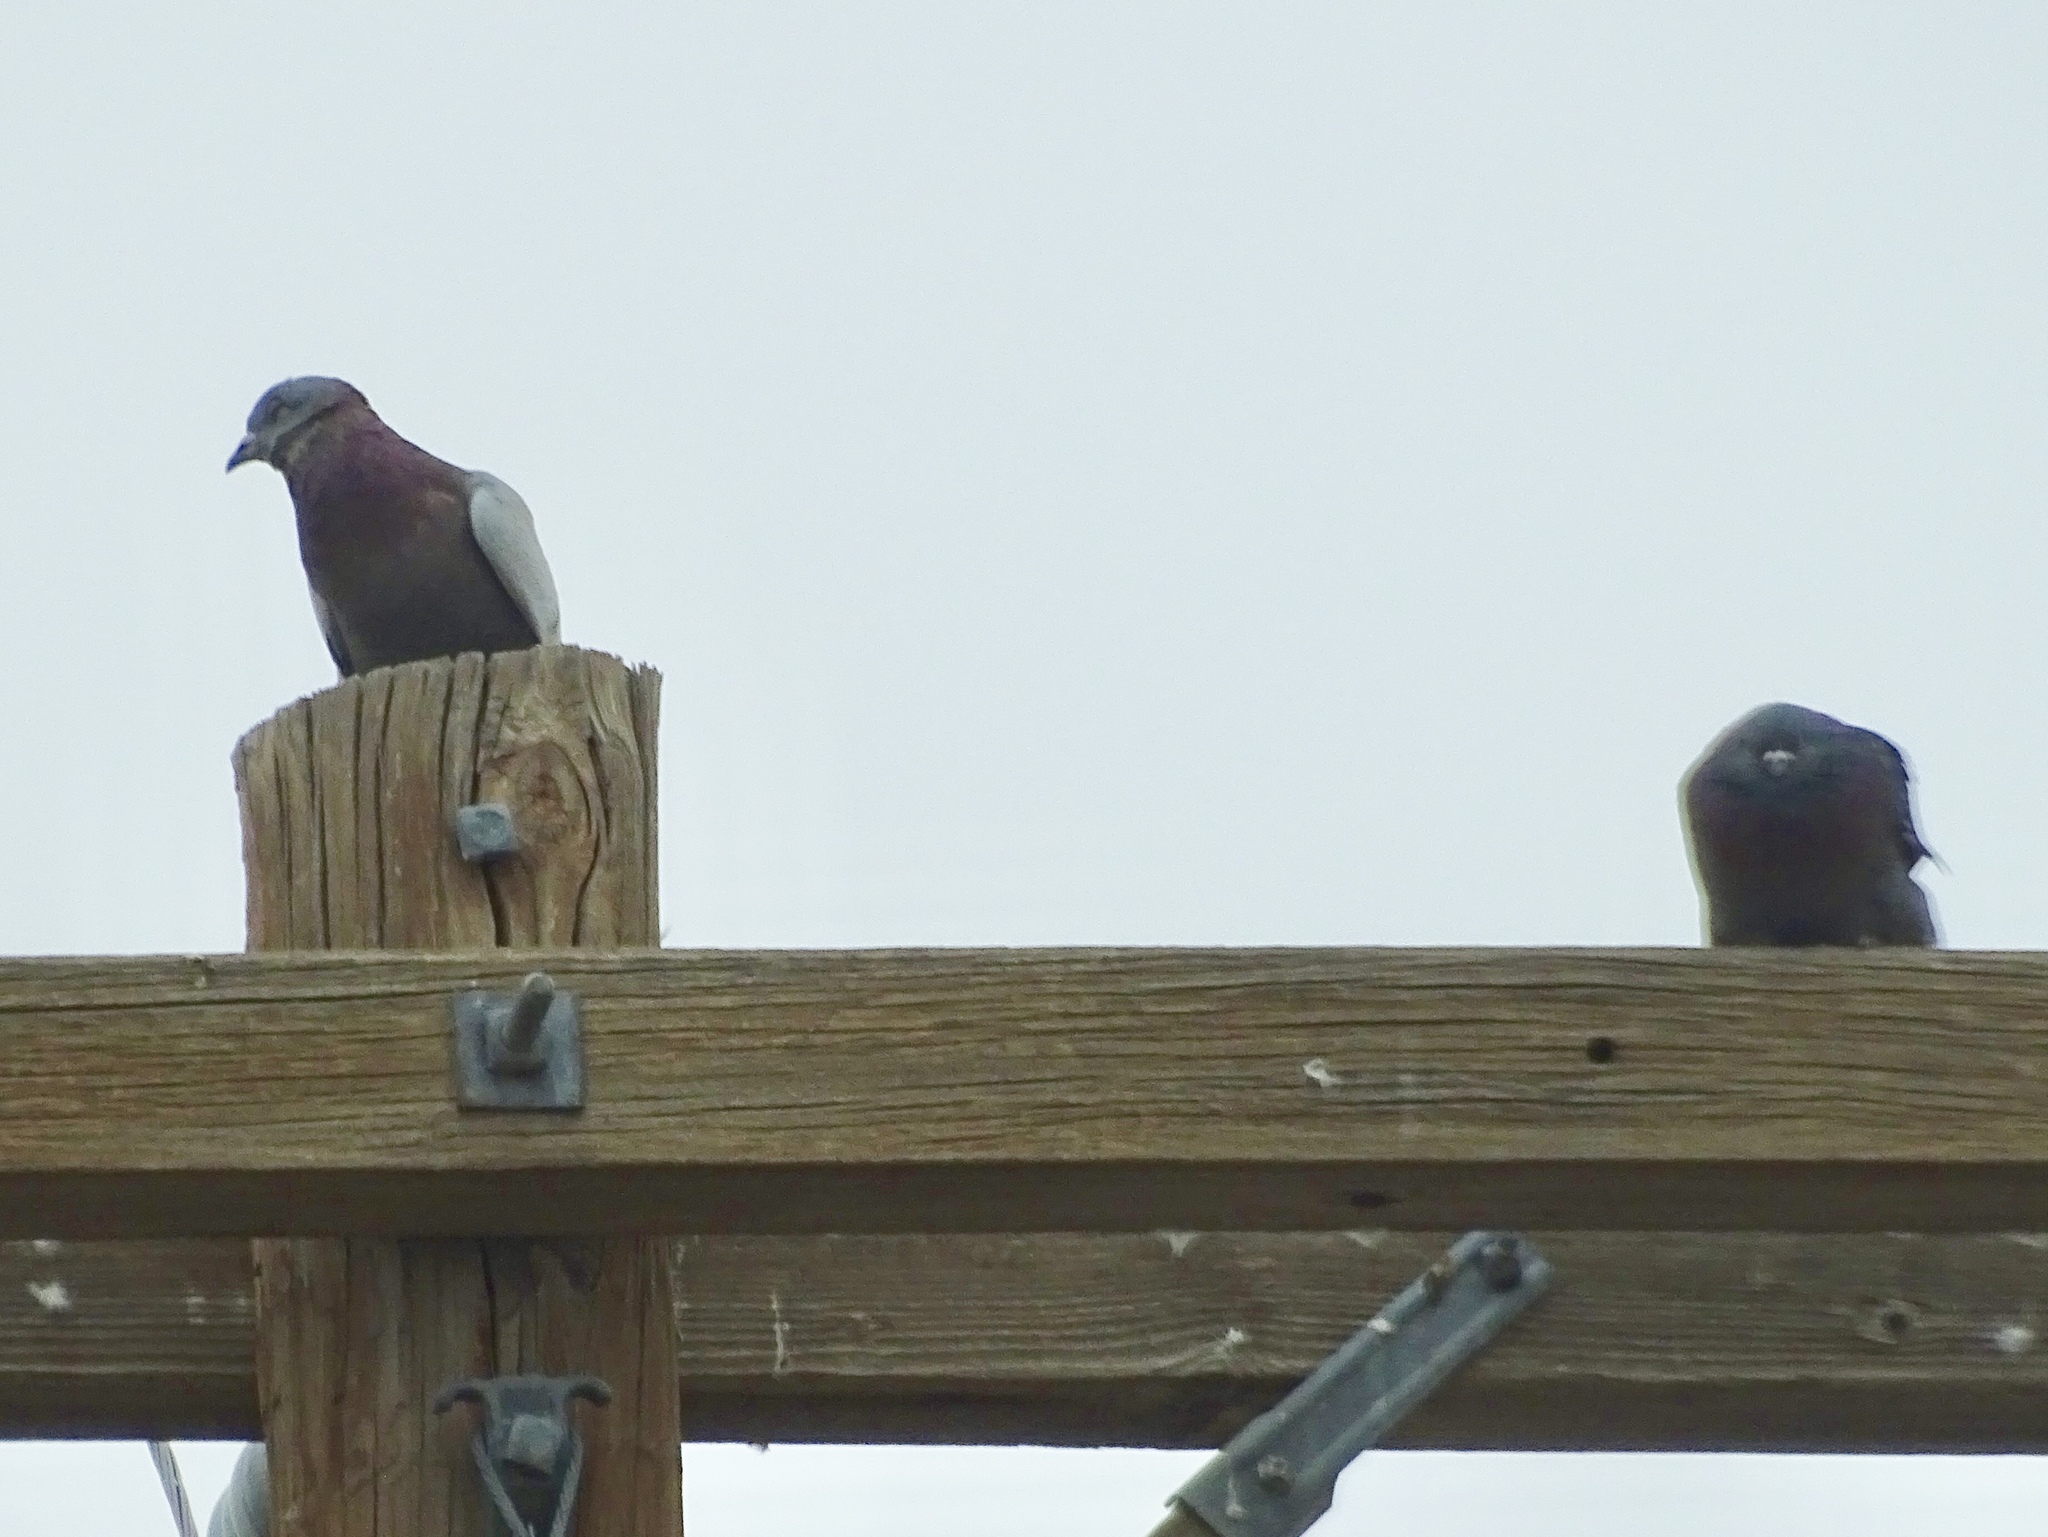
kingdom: Animalia
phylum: Chordata
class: Aves
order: Columbiformes
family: Columbidae
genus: Columba
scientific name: Columba livia
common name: Rock pigeon
